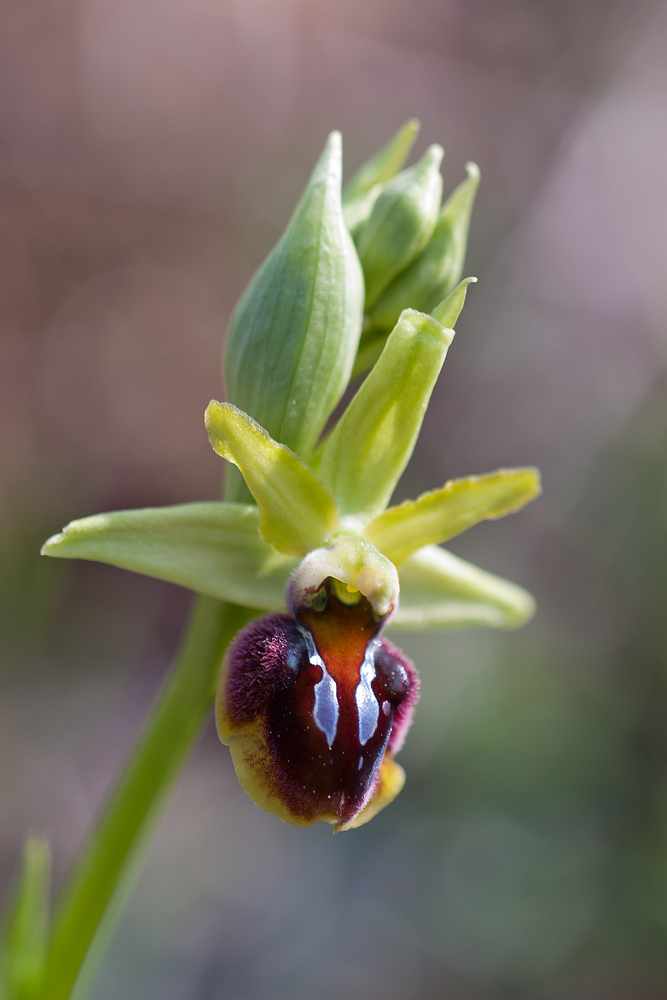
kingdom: Plantae
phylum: Tracheophyta
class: Liliopsida
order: Asparagales
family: Orchidaceae
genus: Ophrys
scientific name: Ophrys sphegodes
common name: Early spider-orchid
